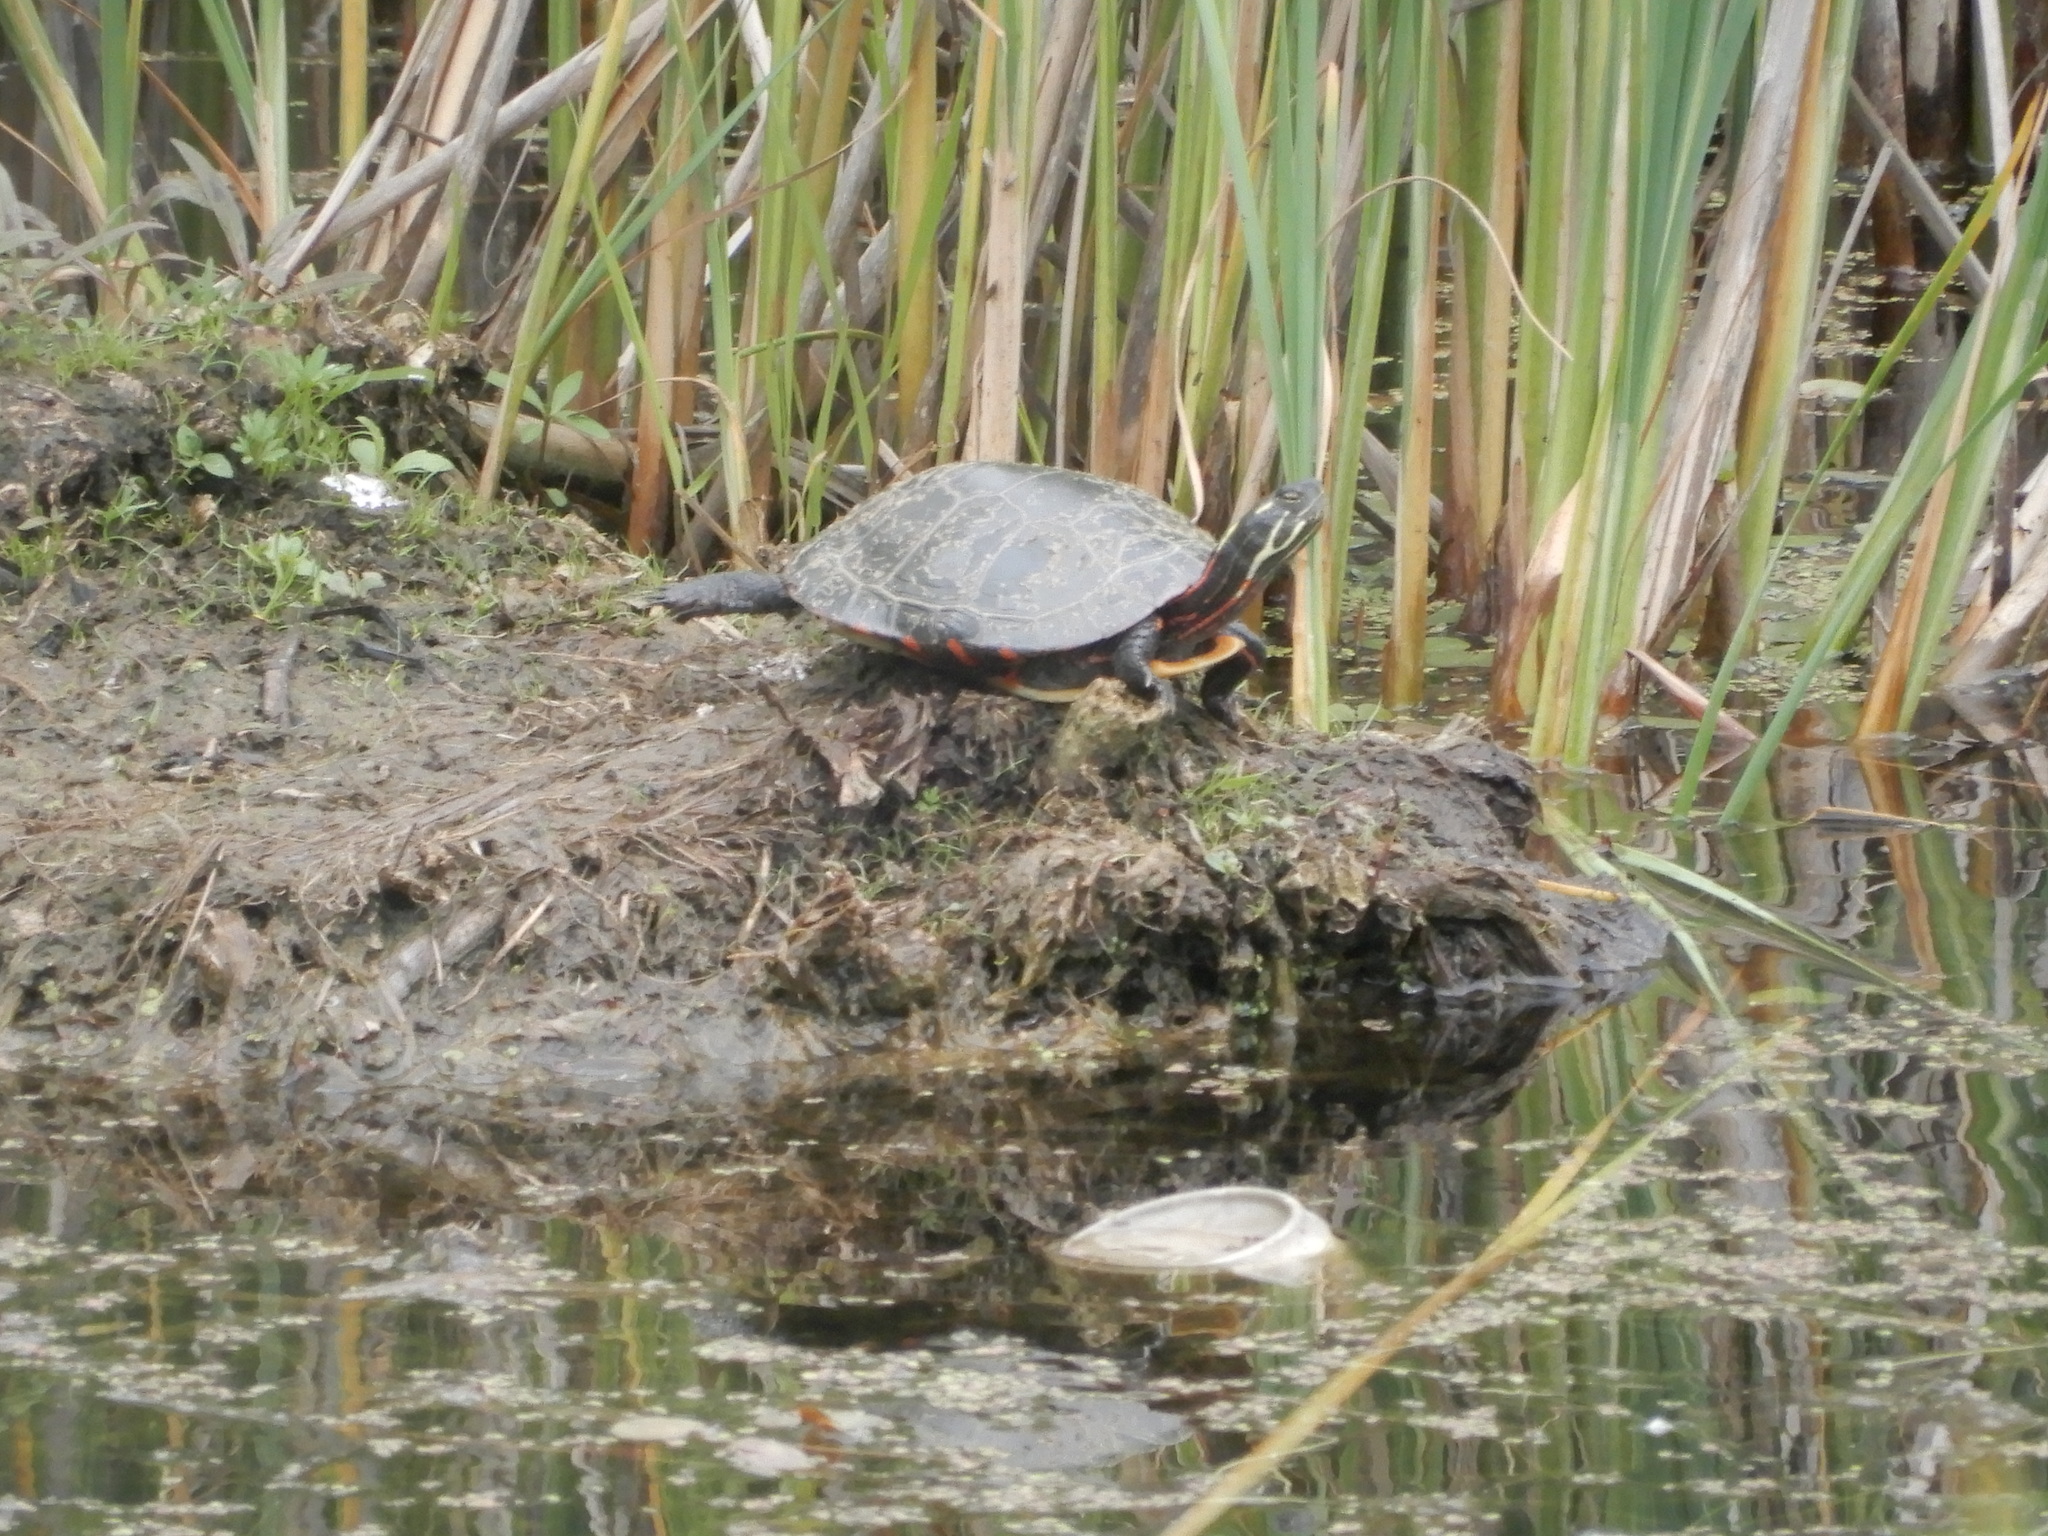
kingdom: Animalia
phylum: Chordata
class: Testudines
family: Emydidae
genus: Chrysemys
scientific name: Chrysemys picta
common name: Painted turtle
